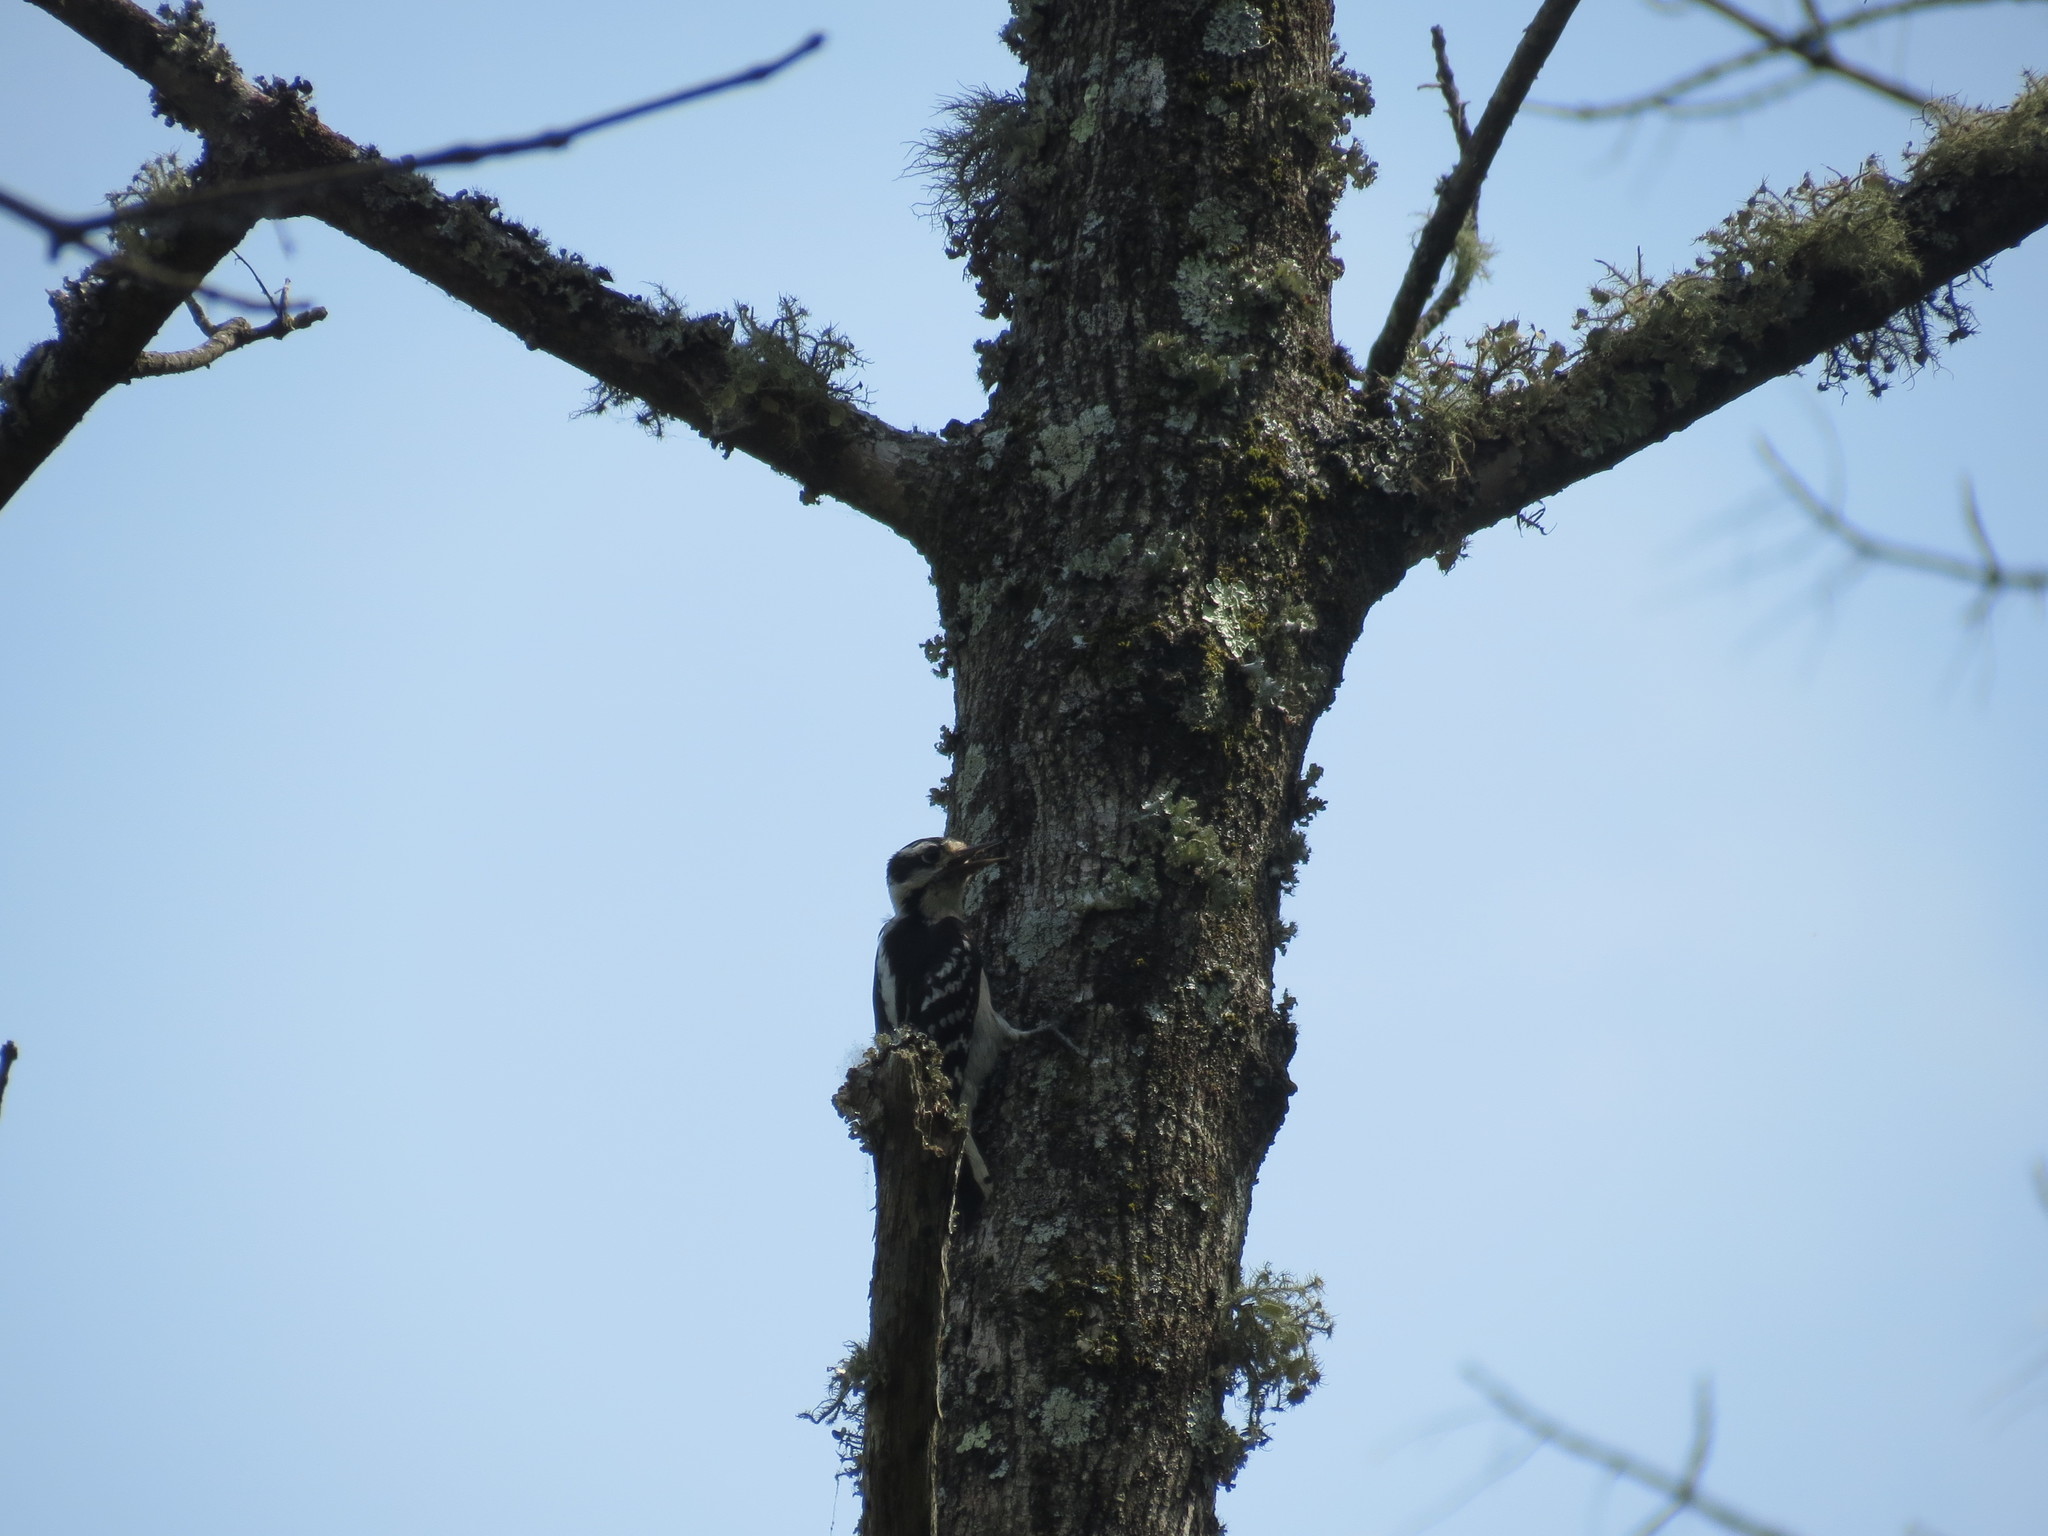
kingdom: Animalia
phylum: Chordata
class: Aves
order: Piciformes
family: Picidae
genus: Dryobates
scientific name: Dryobates pubescens
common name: Downy woodpecker
